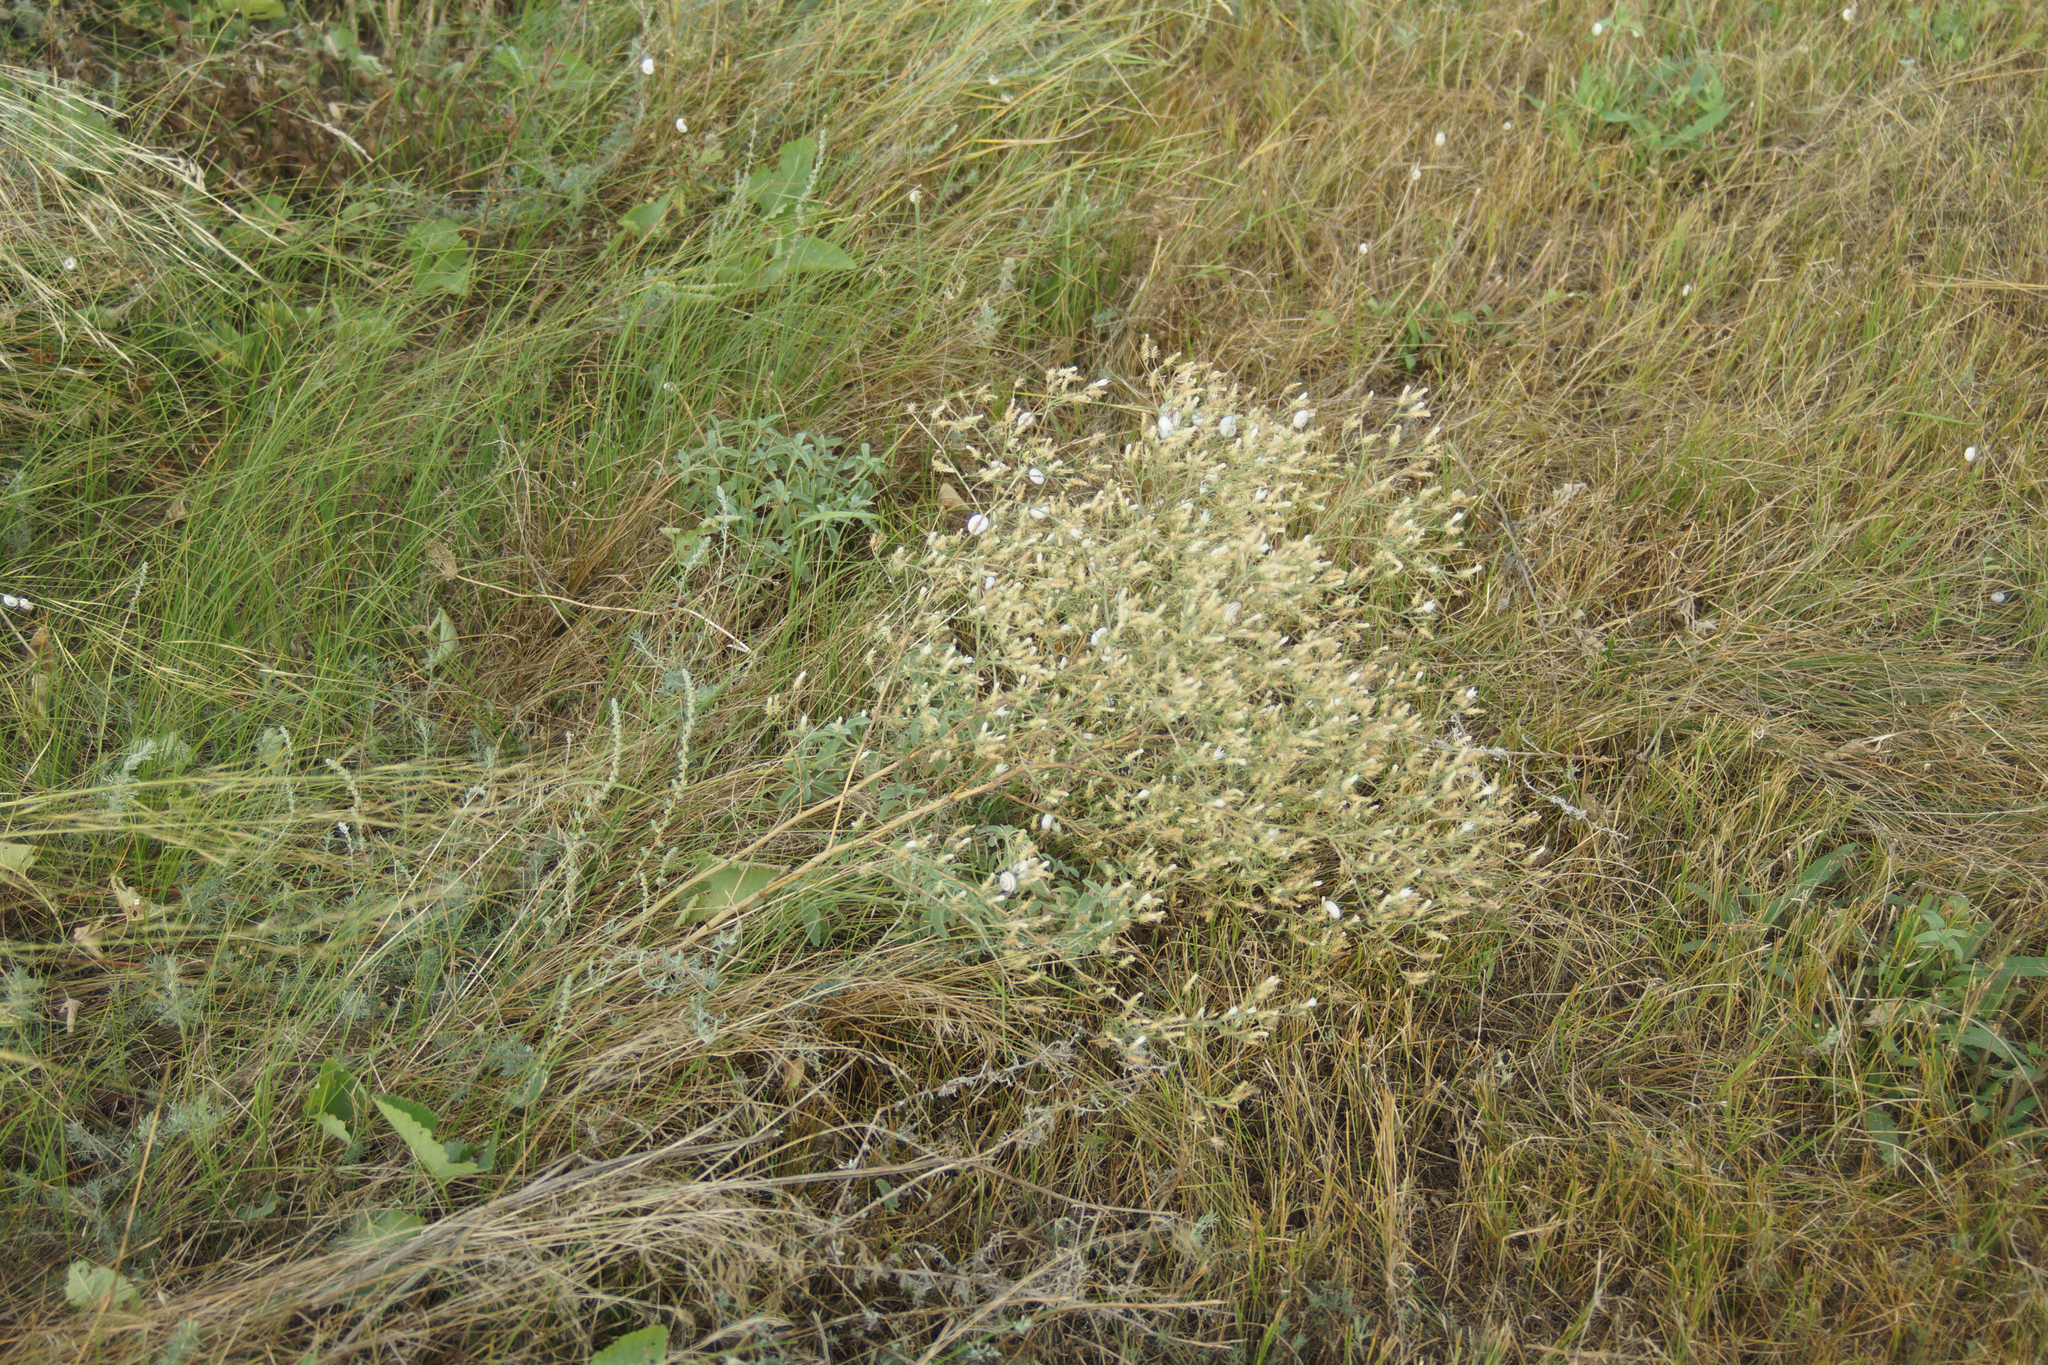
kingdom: Plantae
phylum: Tracheophyta
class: Magnoliopsida
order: Asterales
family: Asteraceae
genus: Centaurea
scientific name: Centaurea diffusa
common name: Diffuse knapweed
